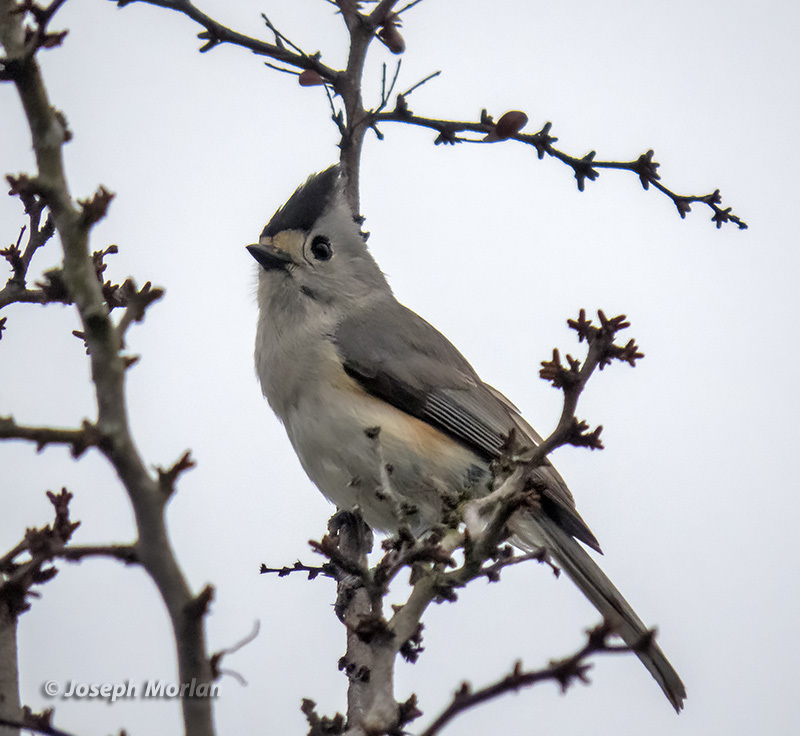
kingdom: Animalia
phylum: Chordata
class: Aves
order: Passeriformes
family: Paridae
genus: Baeolophus
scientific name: Baeolophus atricristatus
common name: Black-crested titmouse
